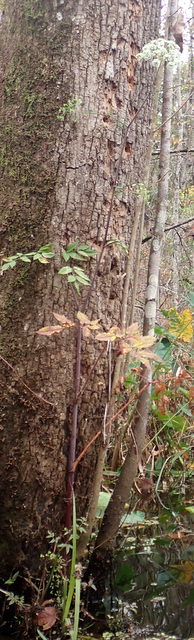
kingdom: Plantae
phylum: Tracheophyta
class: Magnoliopsida
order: Apiales
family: Apiaceae
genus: Cicuta
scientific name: Cicuta maculata
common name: Spotted cowbane
